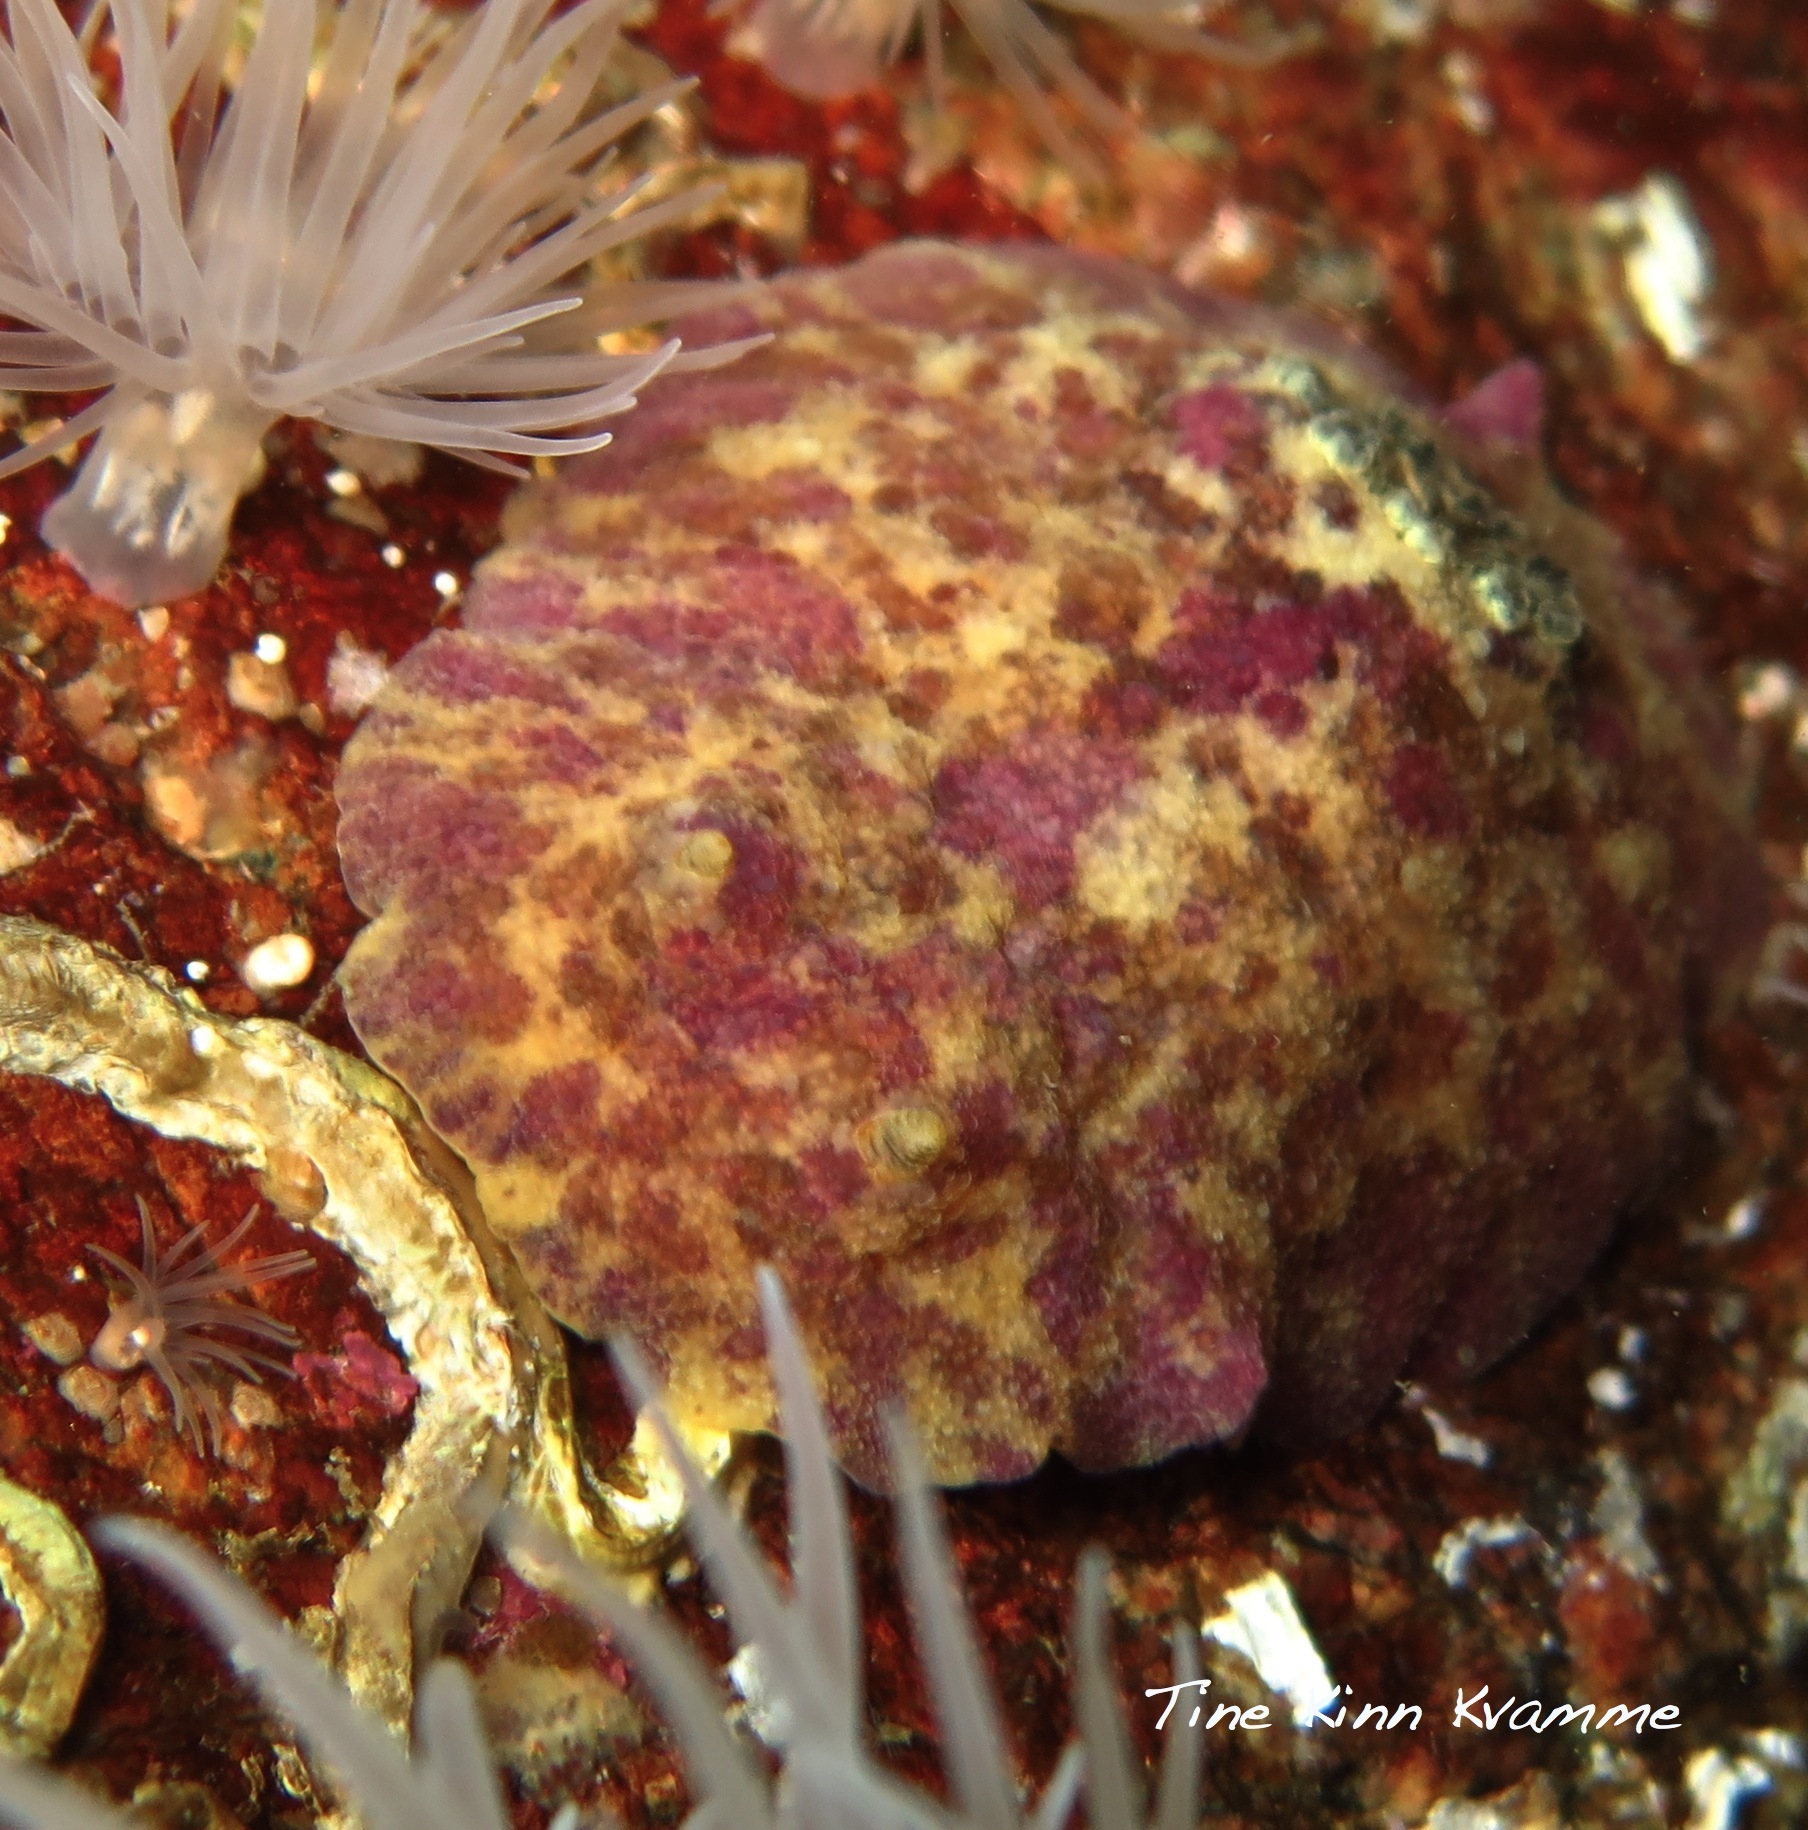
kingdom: Animalia
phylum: Mollusca
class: Gastropoda
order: Nudibranchia
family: Dorididae
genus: Doris
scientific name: Doris pseudoargus
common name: Sea lemon
